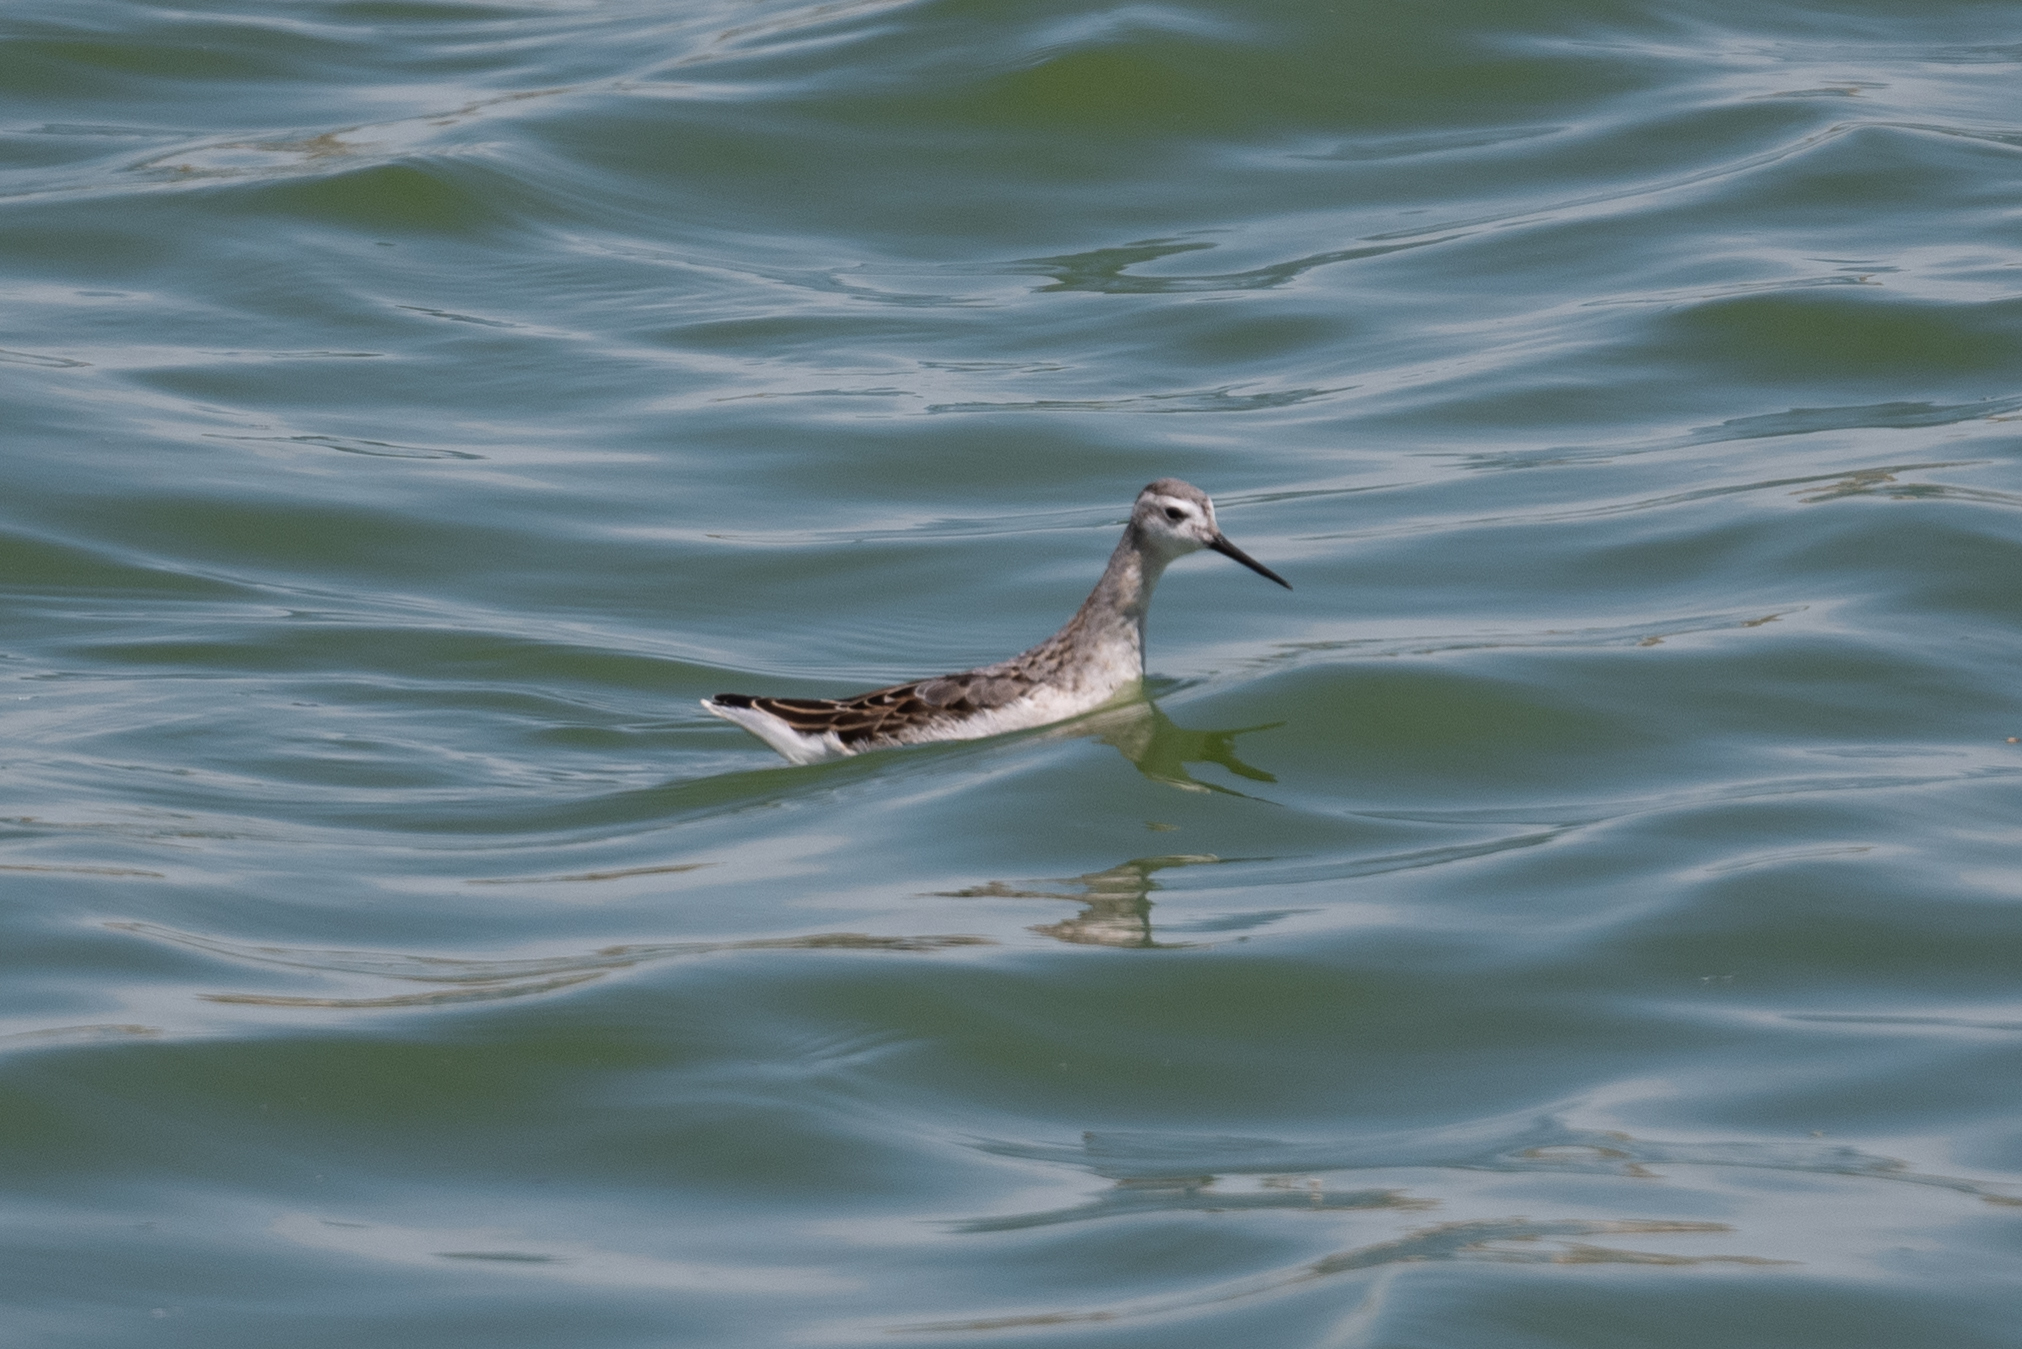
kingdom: Animalia
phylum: Chordata
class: Aves
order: Charadriiformes
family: Scolopacidae
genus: Phalaropus
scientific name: Phalaropus tricolor
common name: Wilson's phalarope
